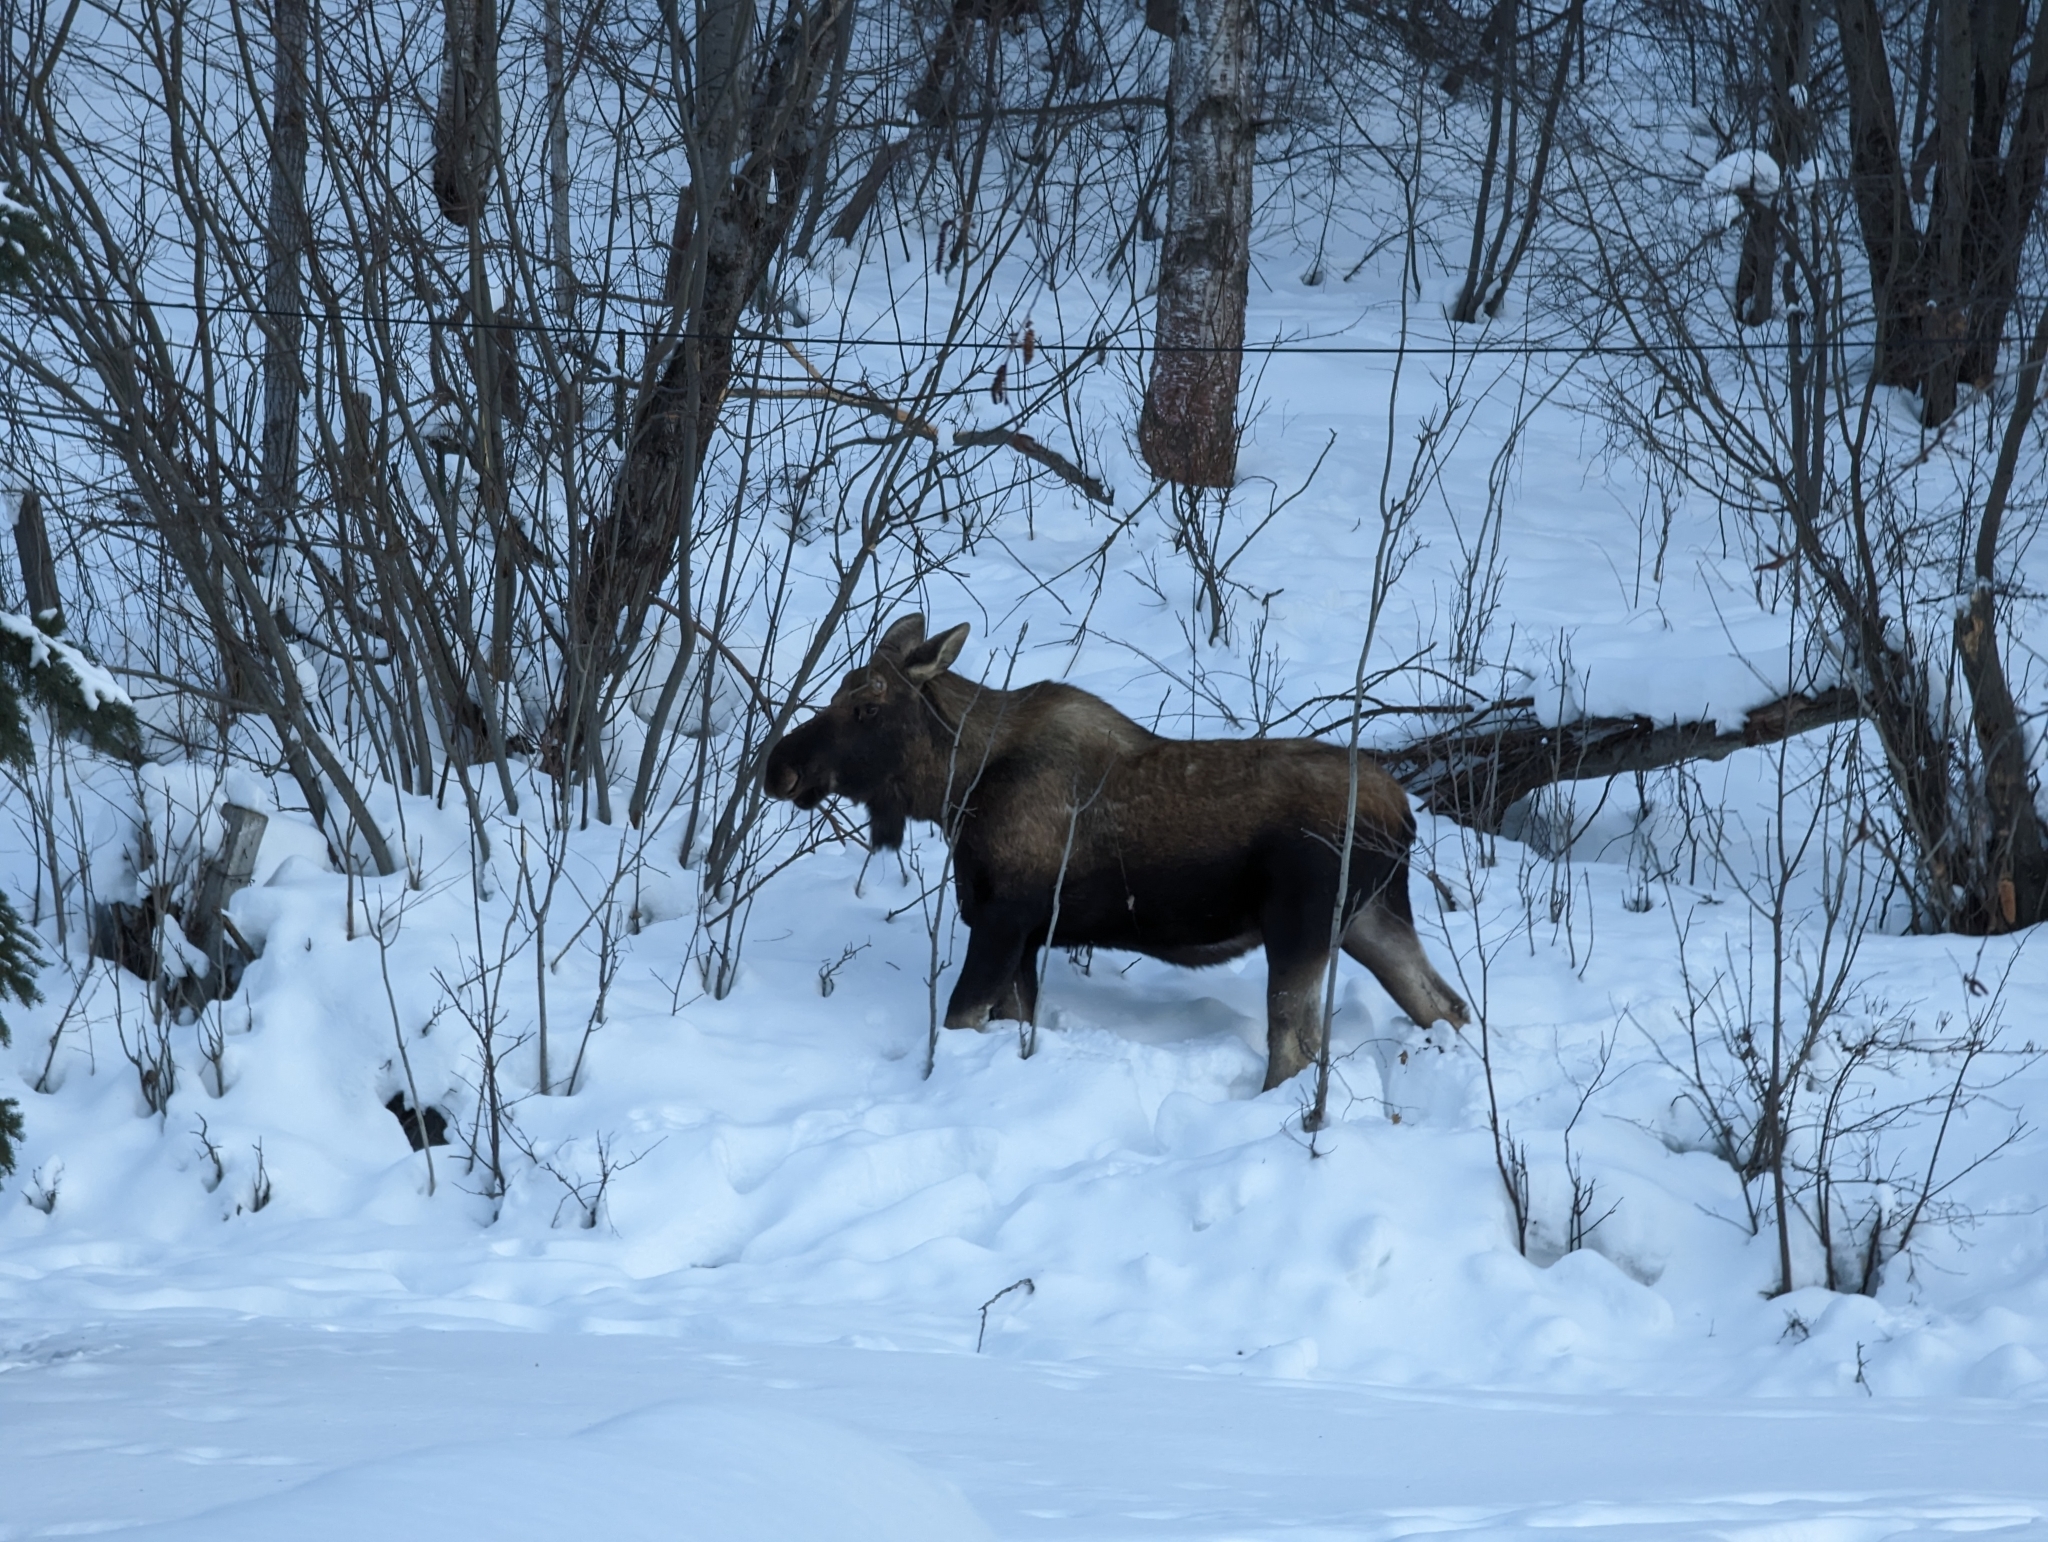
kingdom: Animalia
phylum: Chordata
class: Mammalia
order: Artiodactyla
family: Cervidae
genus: Alces
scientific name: Alces alces
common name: Moose
